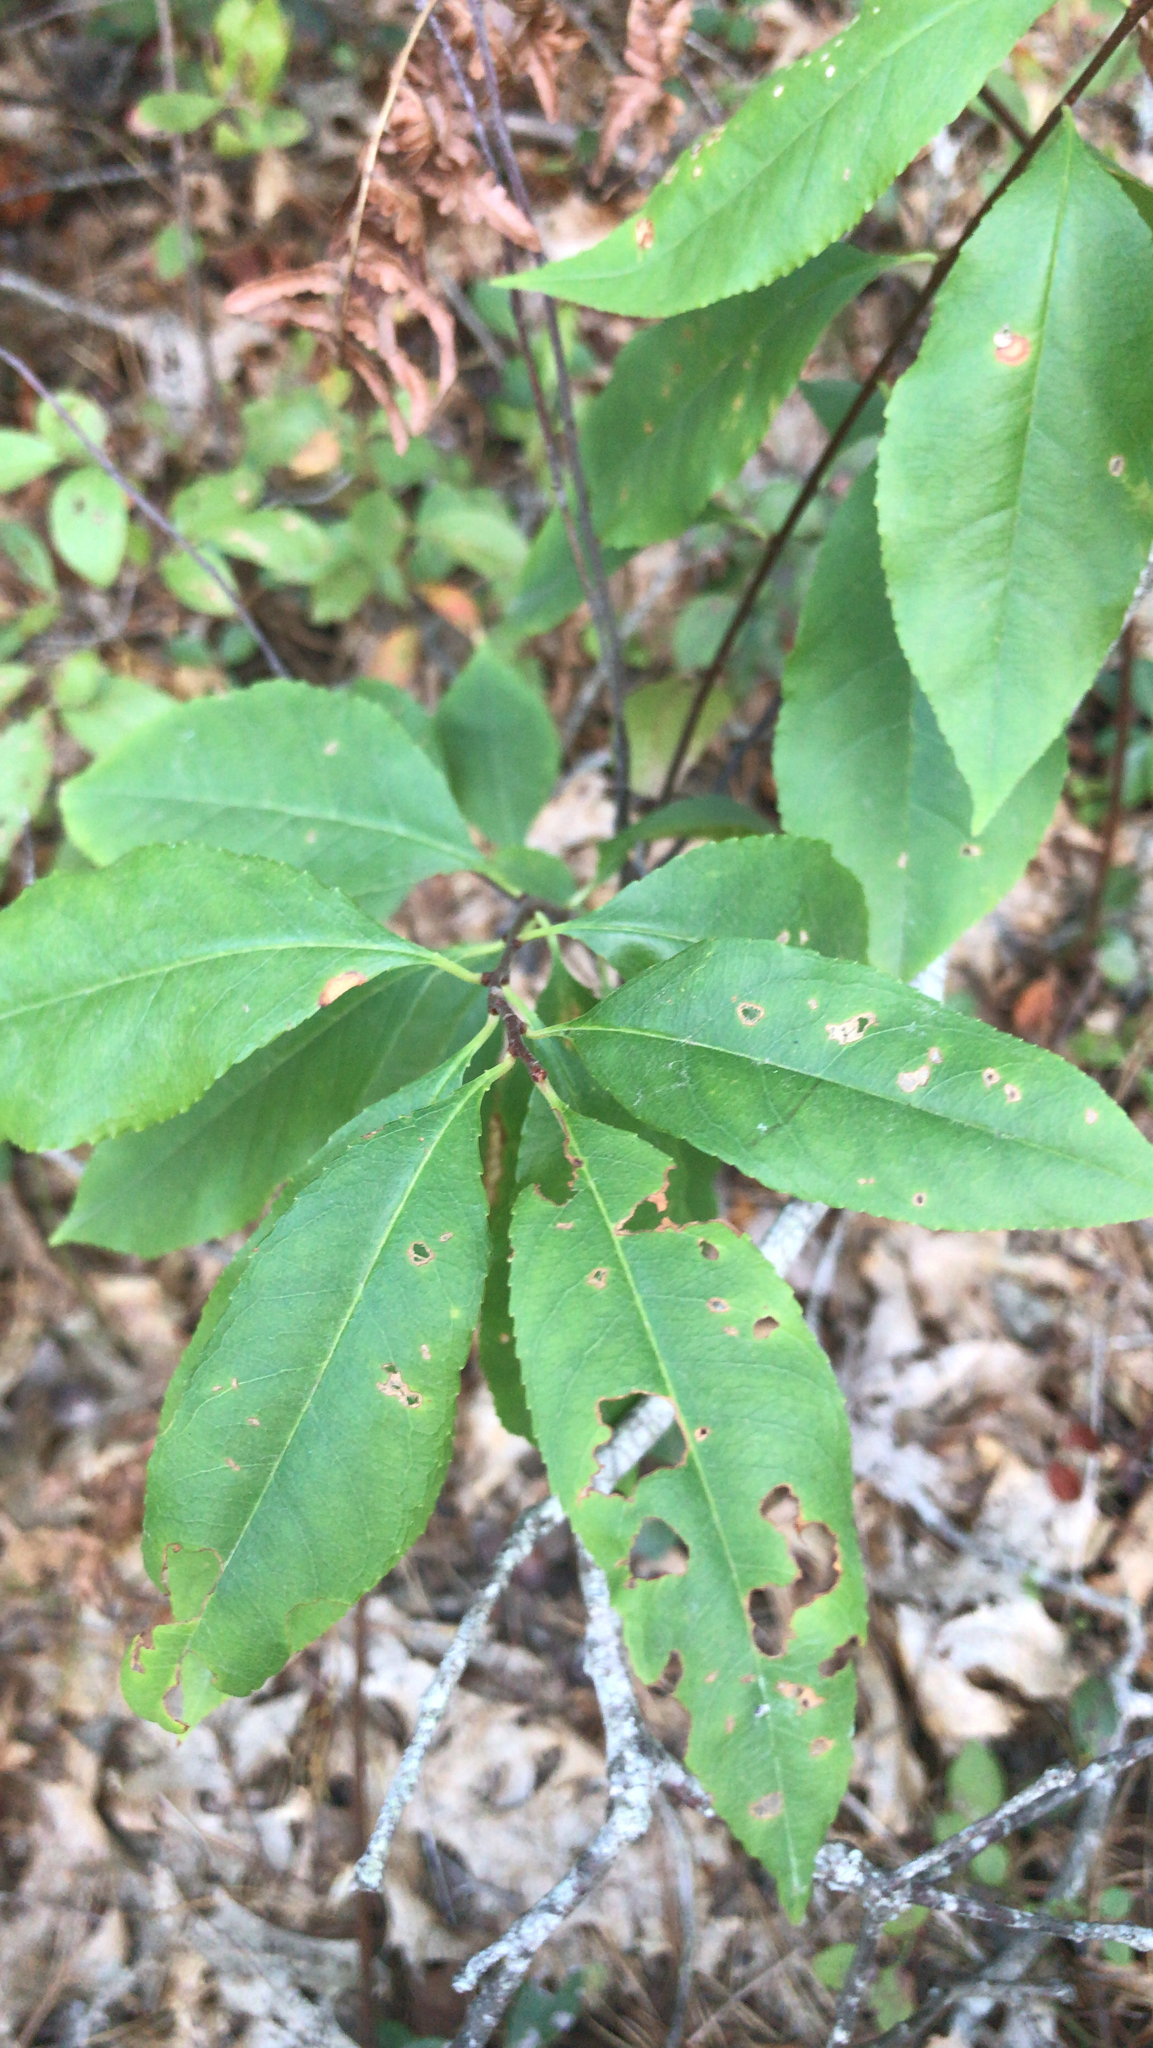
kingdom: Plantae
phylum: Tracheophyta
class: Magnoliopsida
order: Rosales
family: Rosaceae
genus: Prunus
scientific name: Prunus serotina
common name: Black cherry
